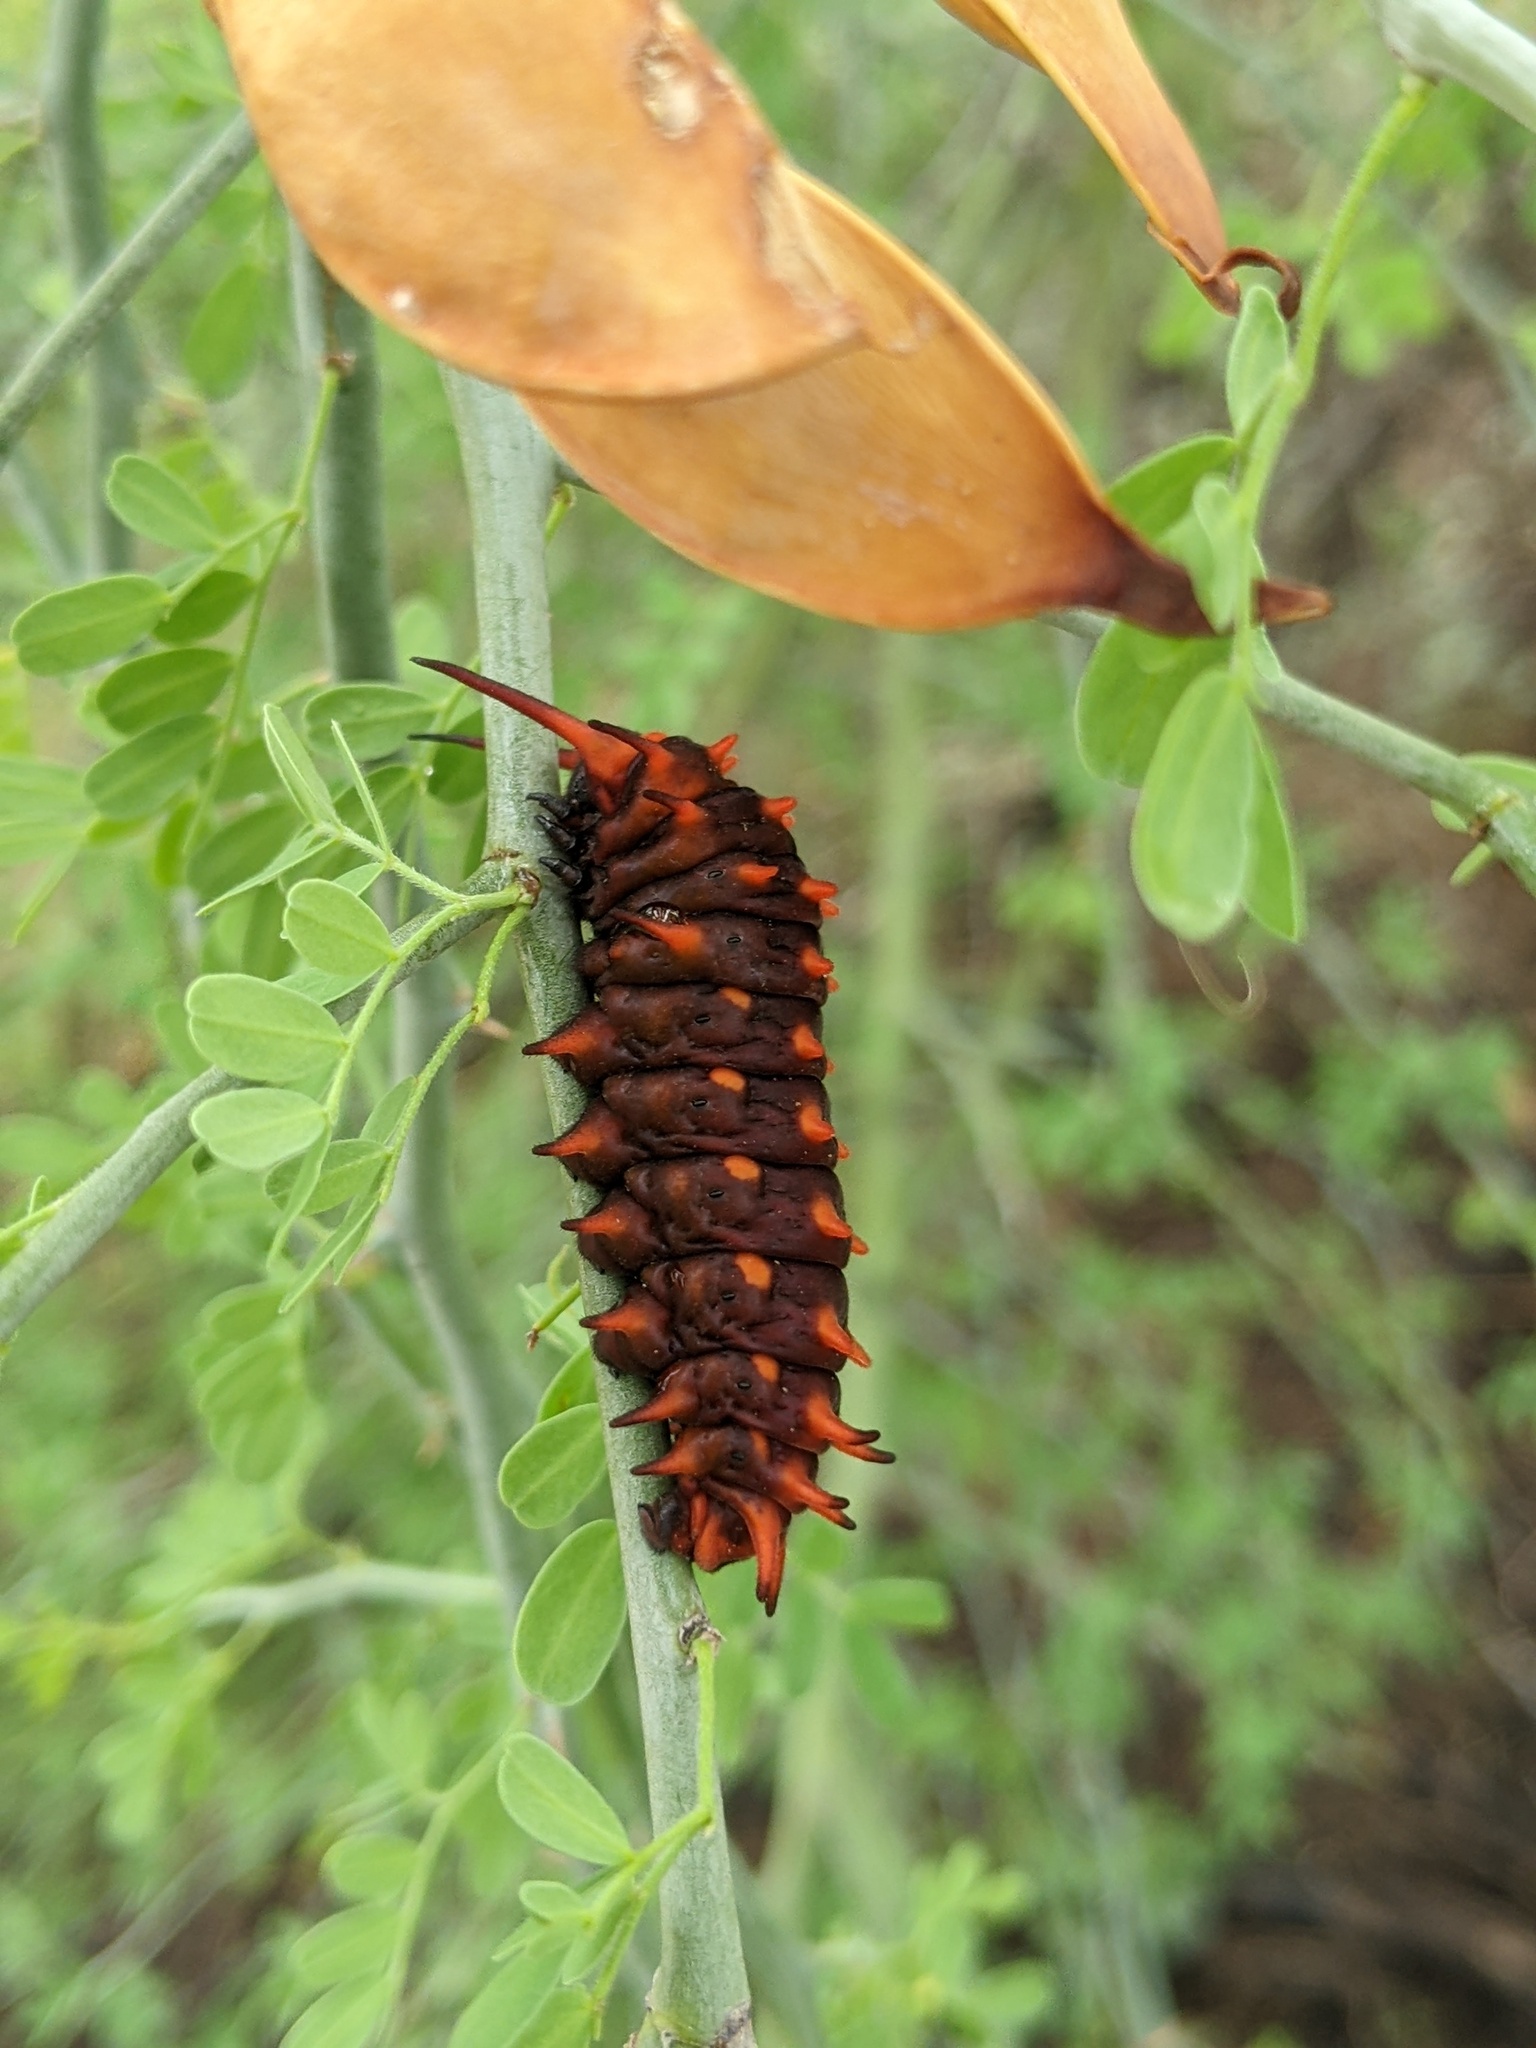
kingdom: Animalia
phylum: Arthropoda
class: Insecta
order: Lepidoptera
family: Papilionidae
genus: Battus
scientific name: Battus philenor
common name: Pipevine swallowtail
